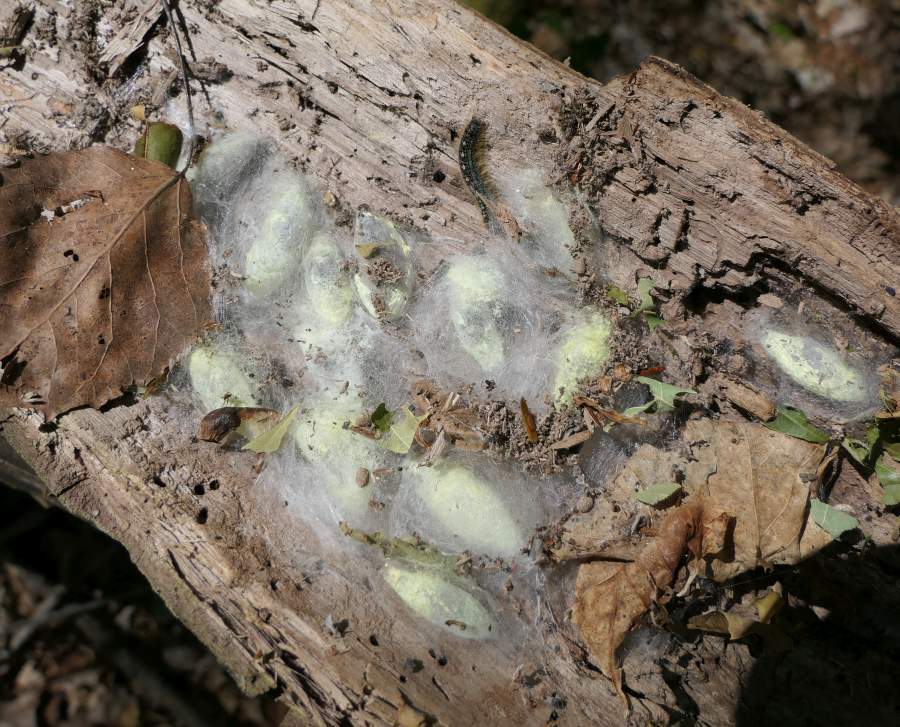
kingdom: Animalia
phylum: Arthropoda
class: Insecta
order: Lepidoptera
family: Lasiocampidae
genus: Malacosoma
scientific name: Malacosoma disstria
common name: Forest tent caterpillar
